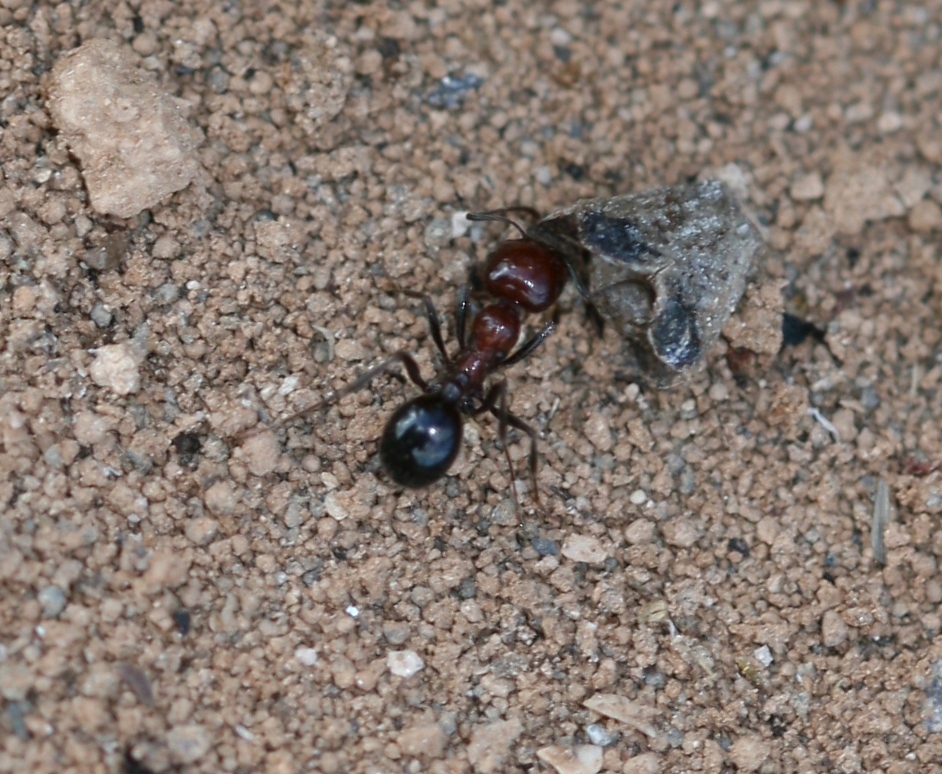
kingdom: Animalia
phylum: Arthropoda
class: Insecta
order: Hymenoptera
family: Formicidae
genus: Messor
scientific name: Messor minor
